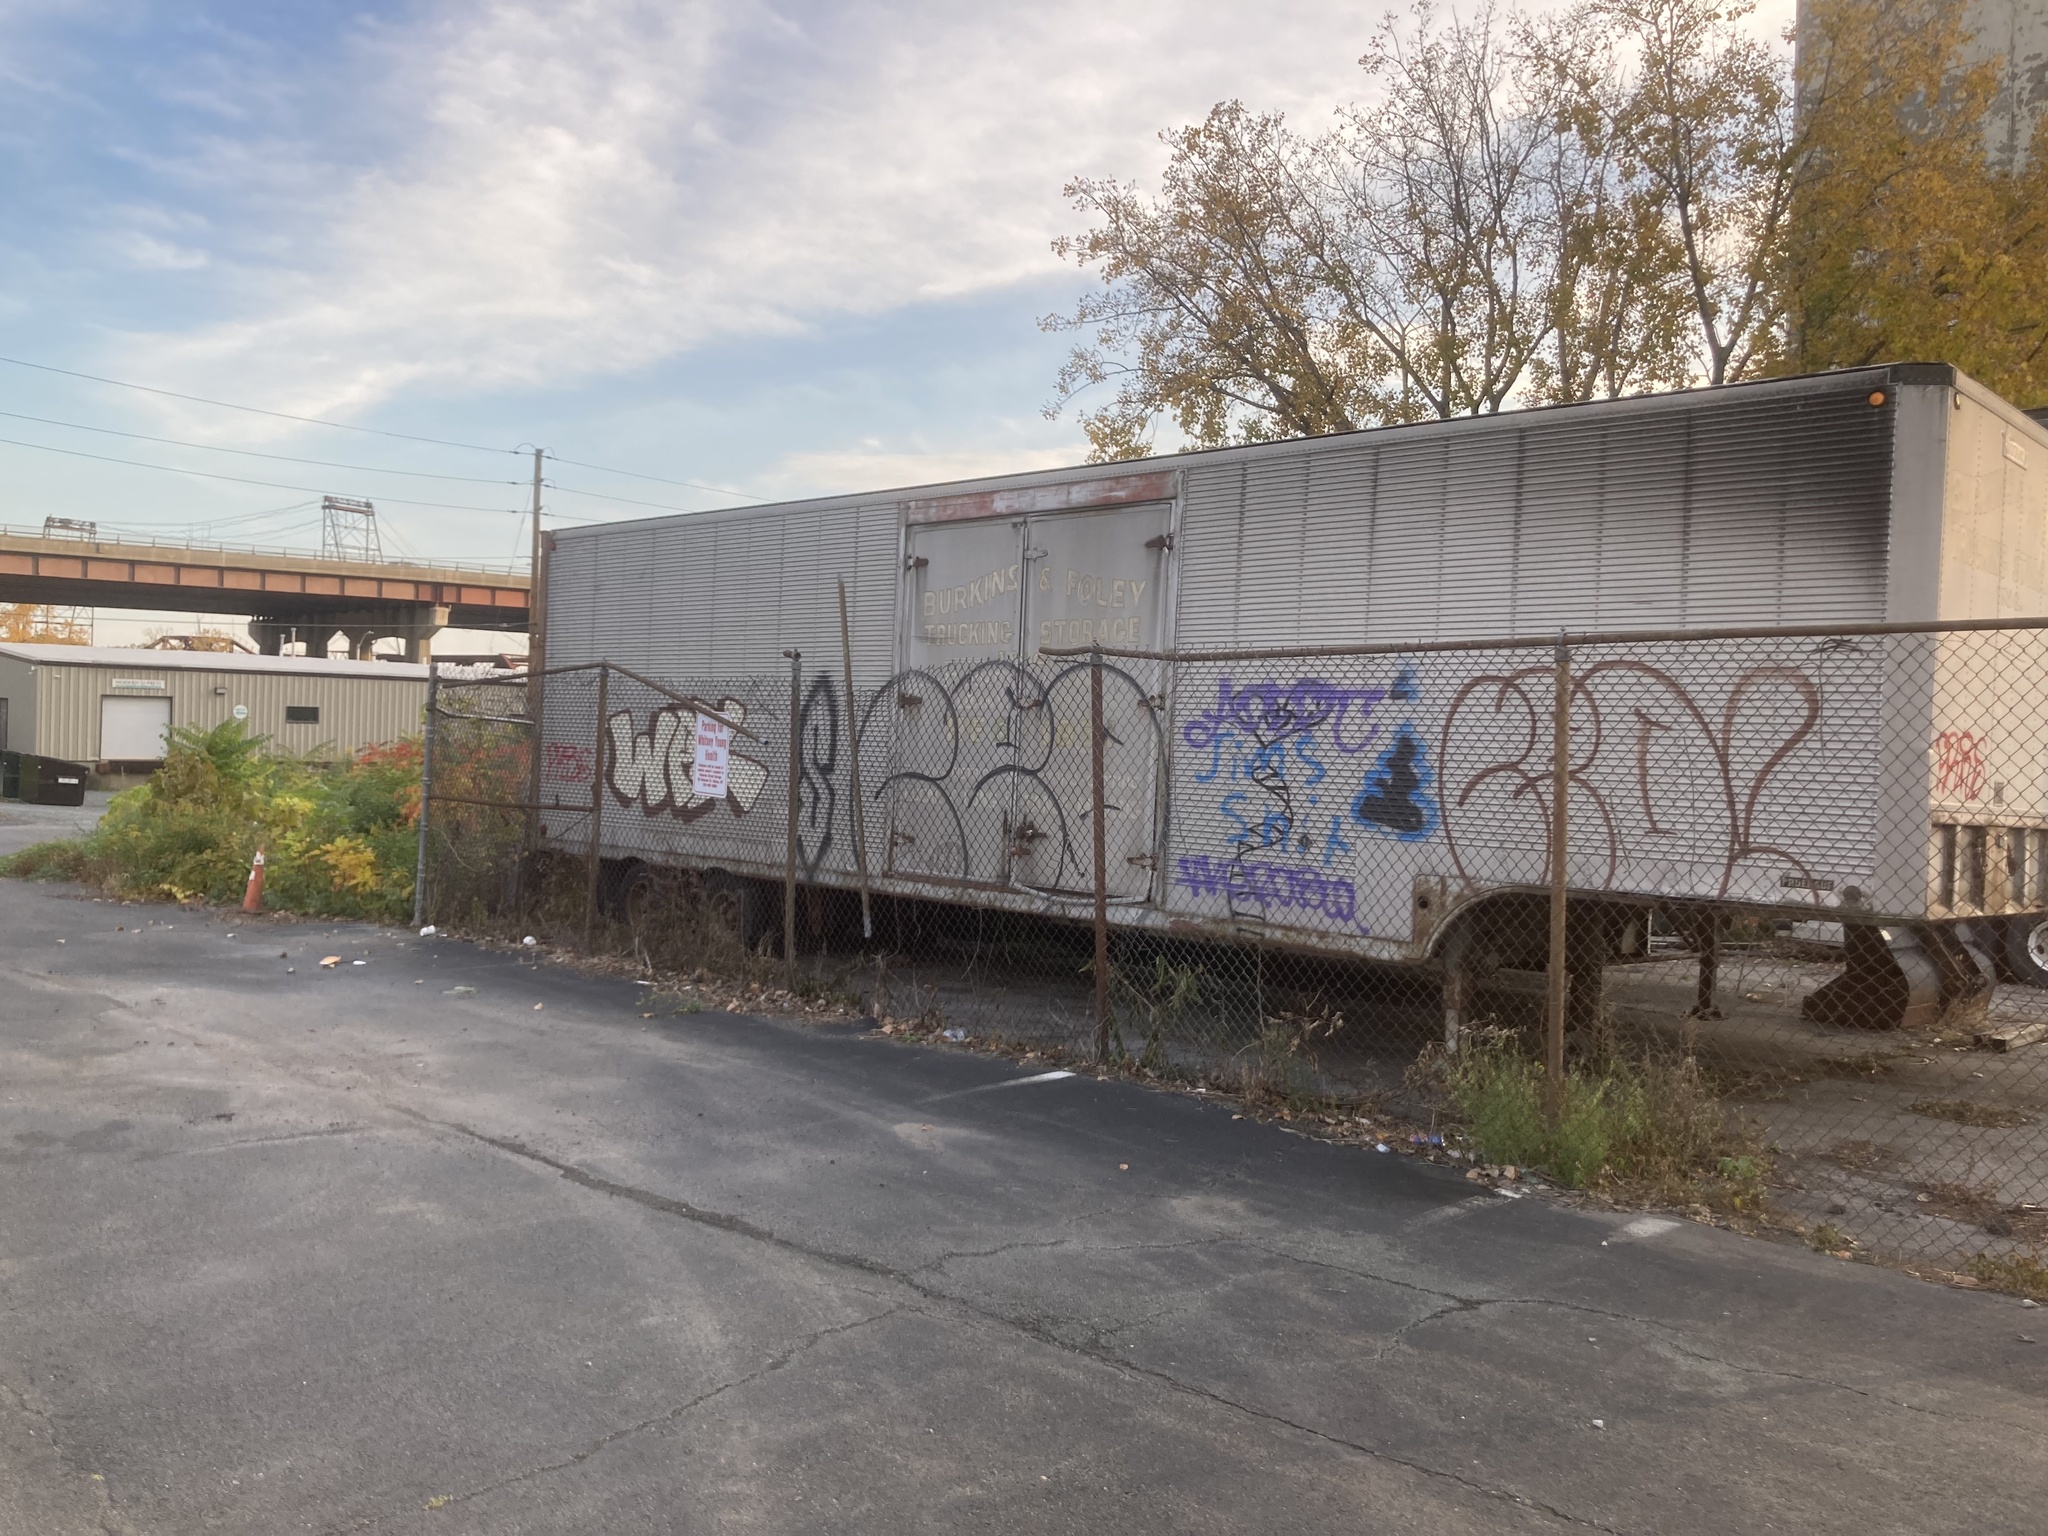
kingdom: Plantae
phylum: Tracheophyta
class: Magnoliopsida
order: Sapindales
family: Simaroubaceae
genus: Ailanthus
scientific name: Ailanthus altissima
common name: Tree-of-heaven
